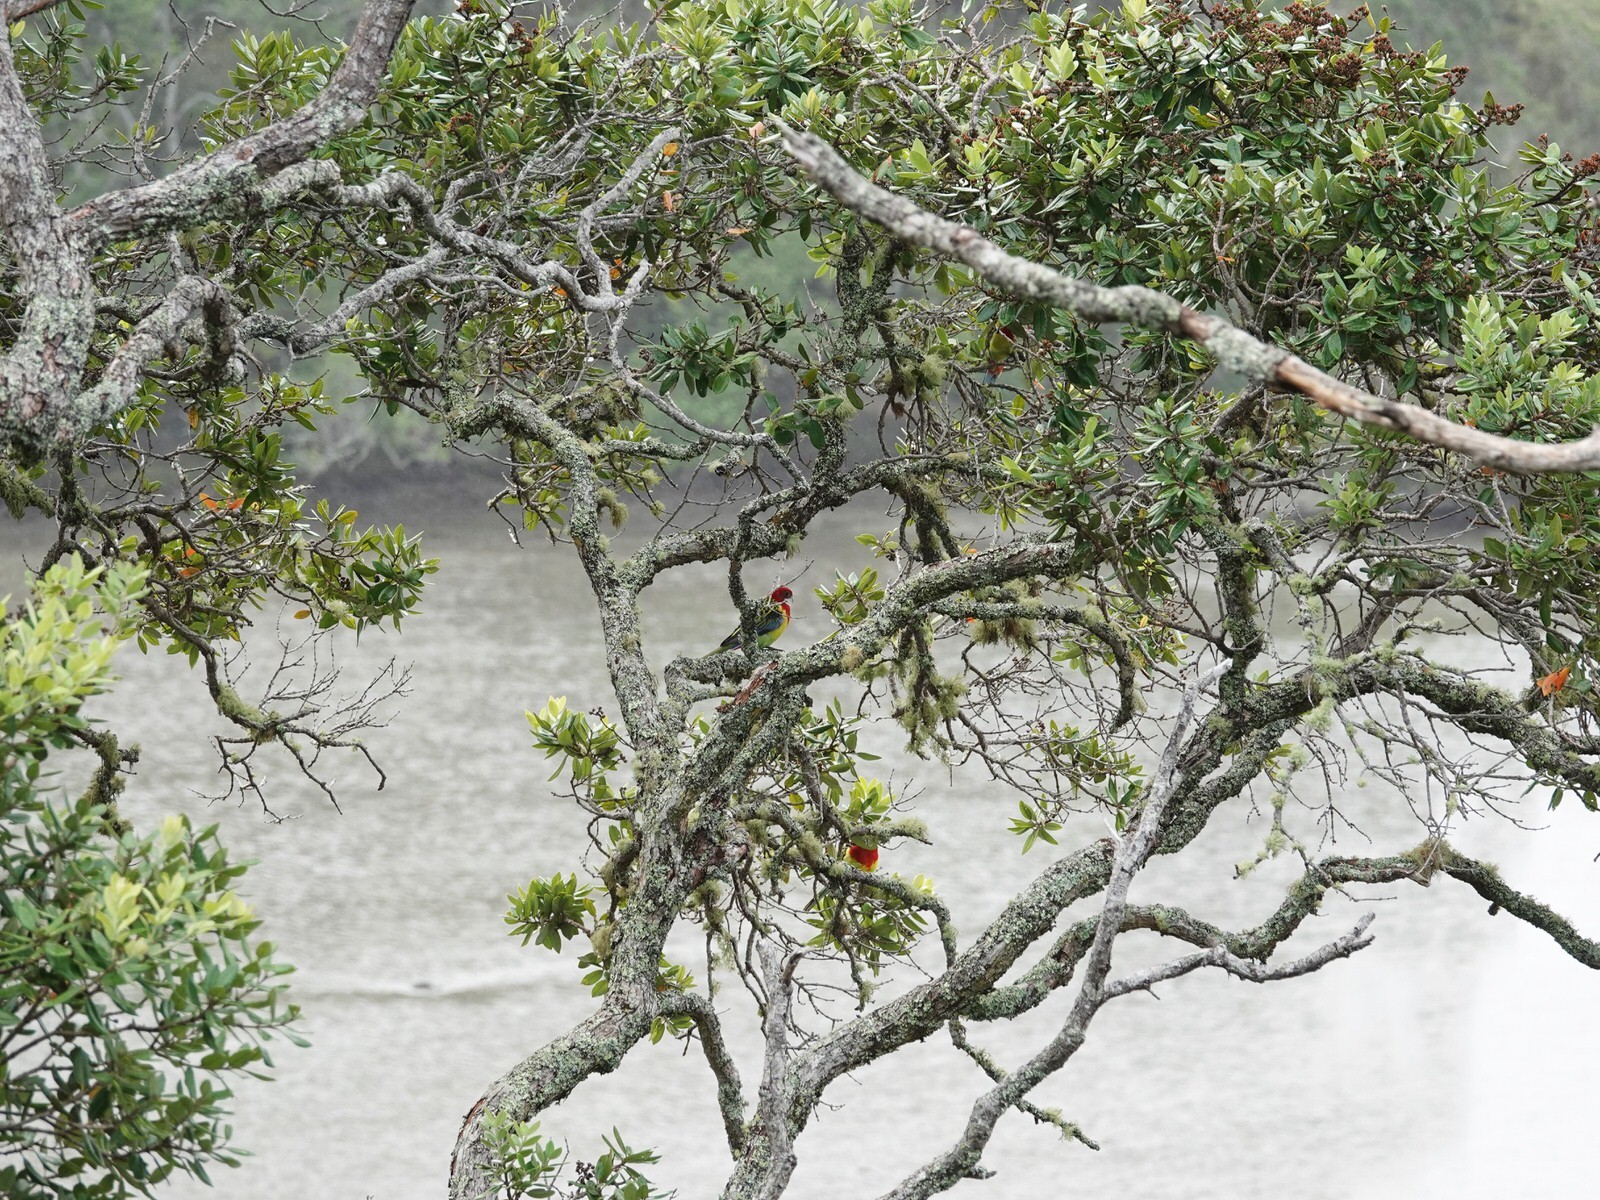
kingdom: Animalia
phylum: Chordata
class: Aves
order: Psittaciformes
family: Psittacidae
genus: Platycercus
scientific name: Platycercus eximius
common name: Eastern rosella
